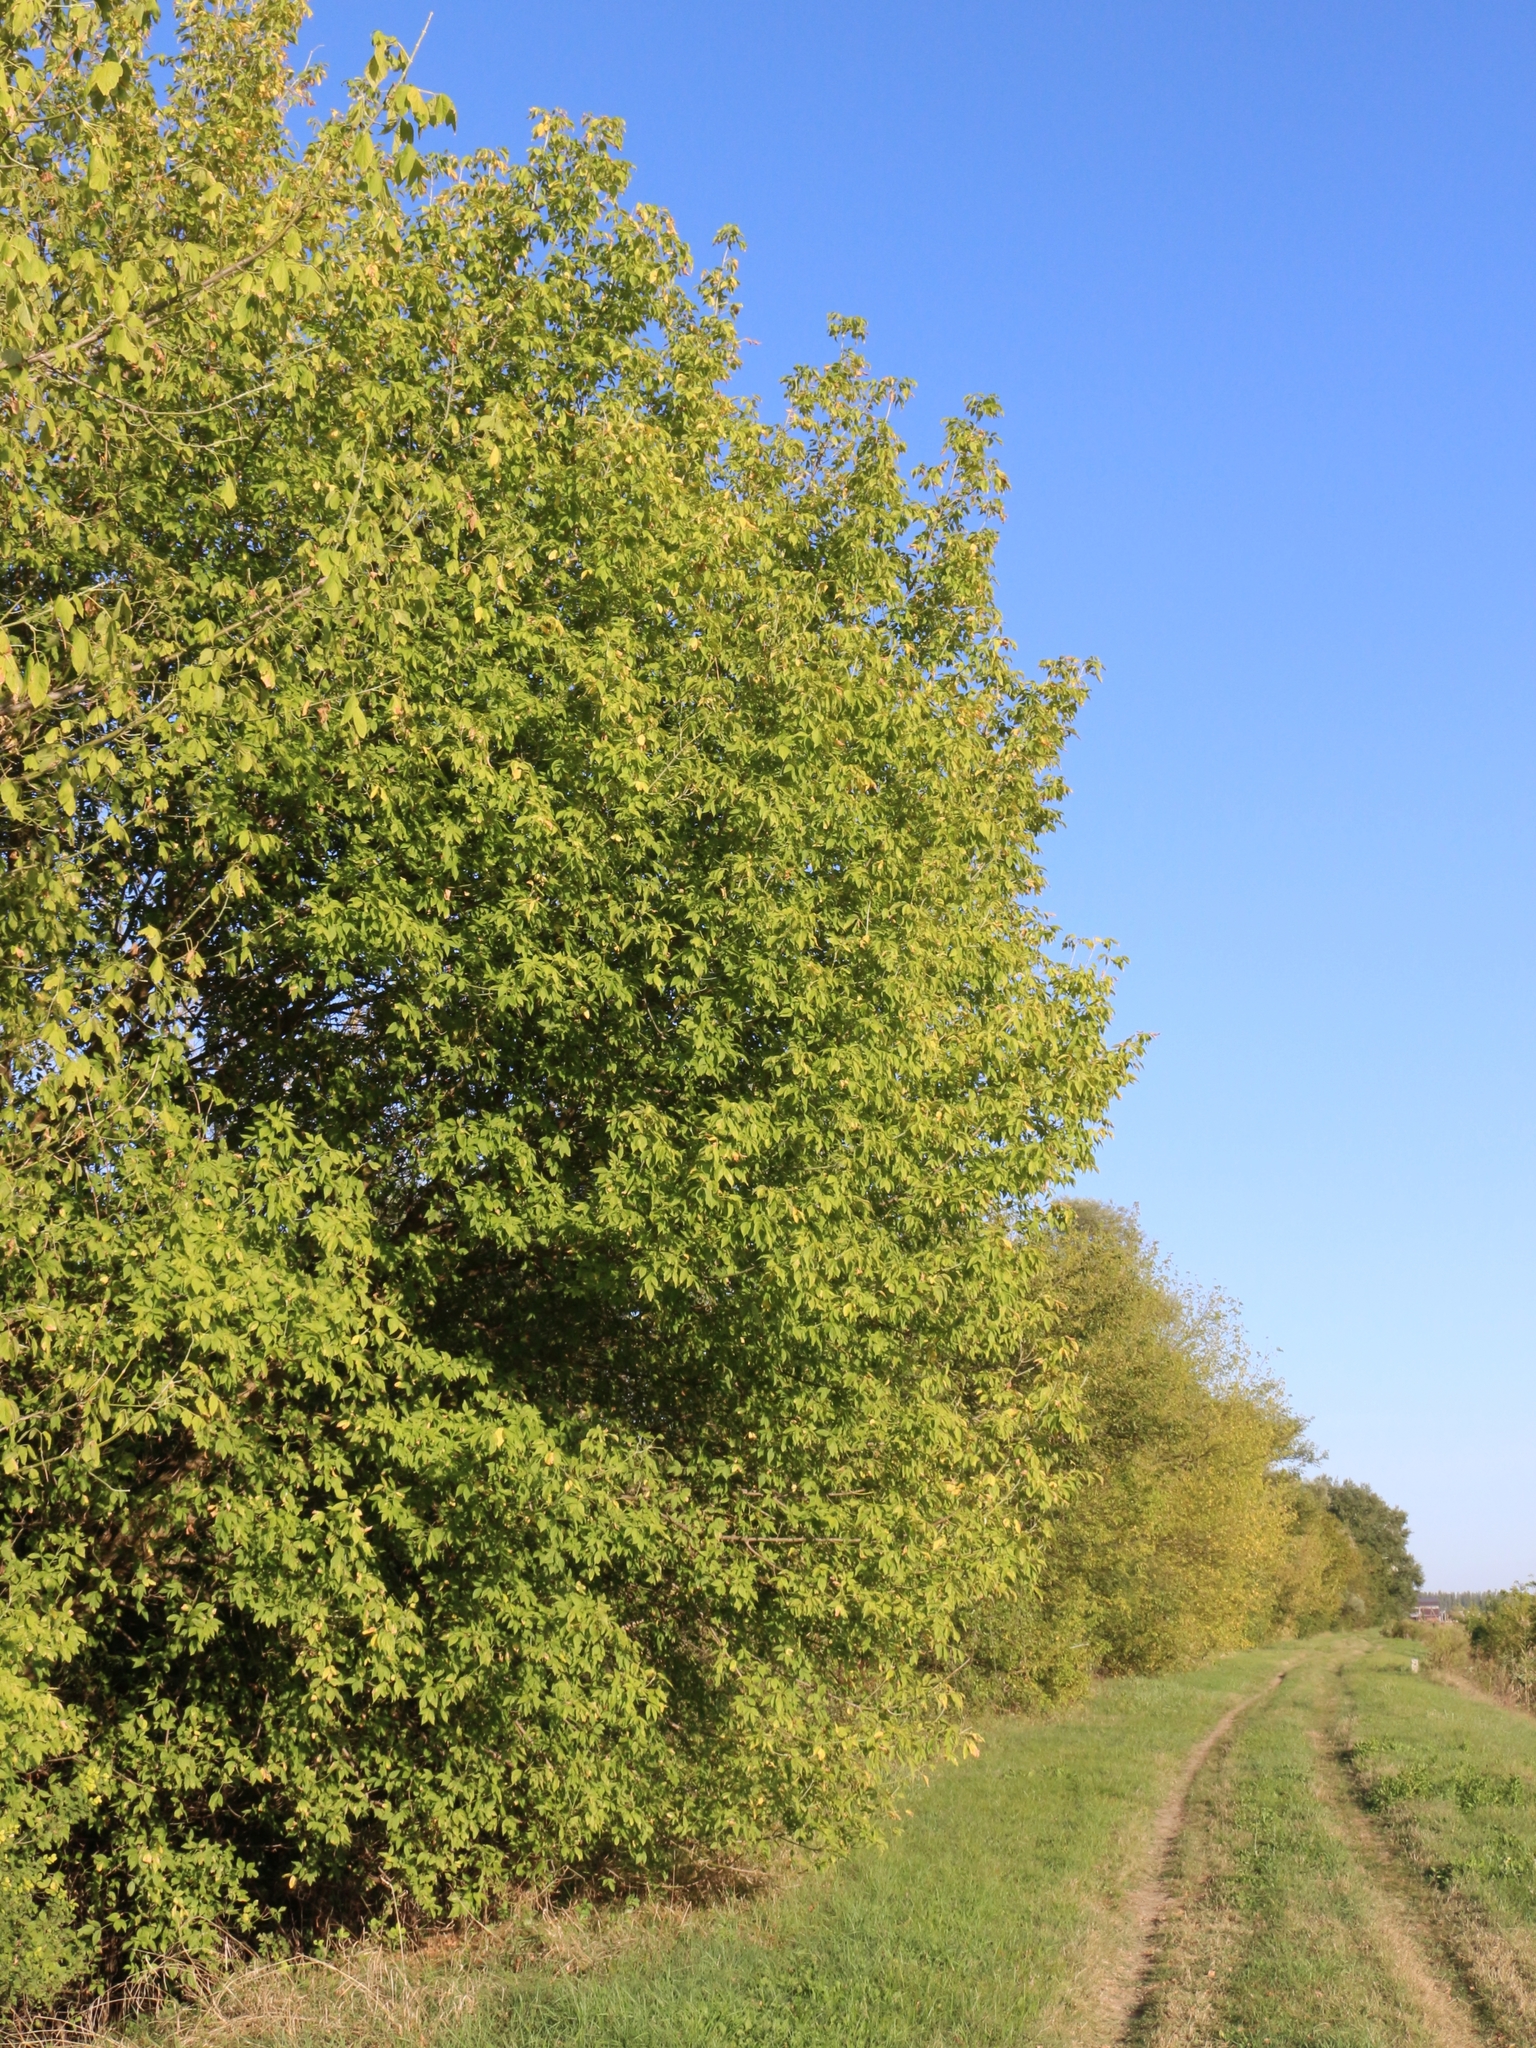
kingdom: Plantae
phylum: Tracheophyta
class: Magnoliopsida
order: Sapindales
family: Sapindaceae
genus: Acer
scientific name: Acer negundo
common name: Ashleaf maple
